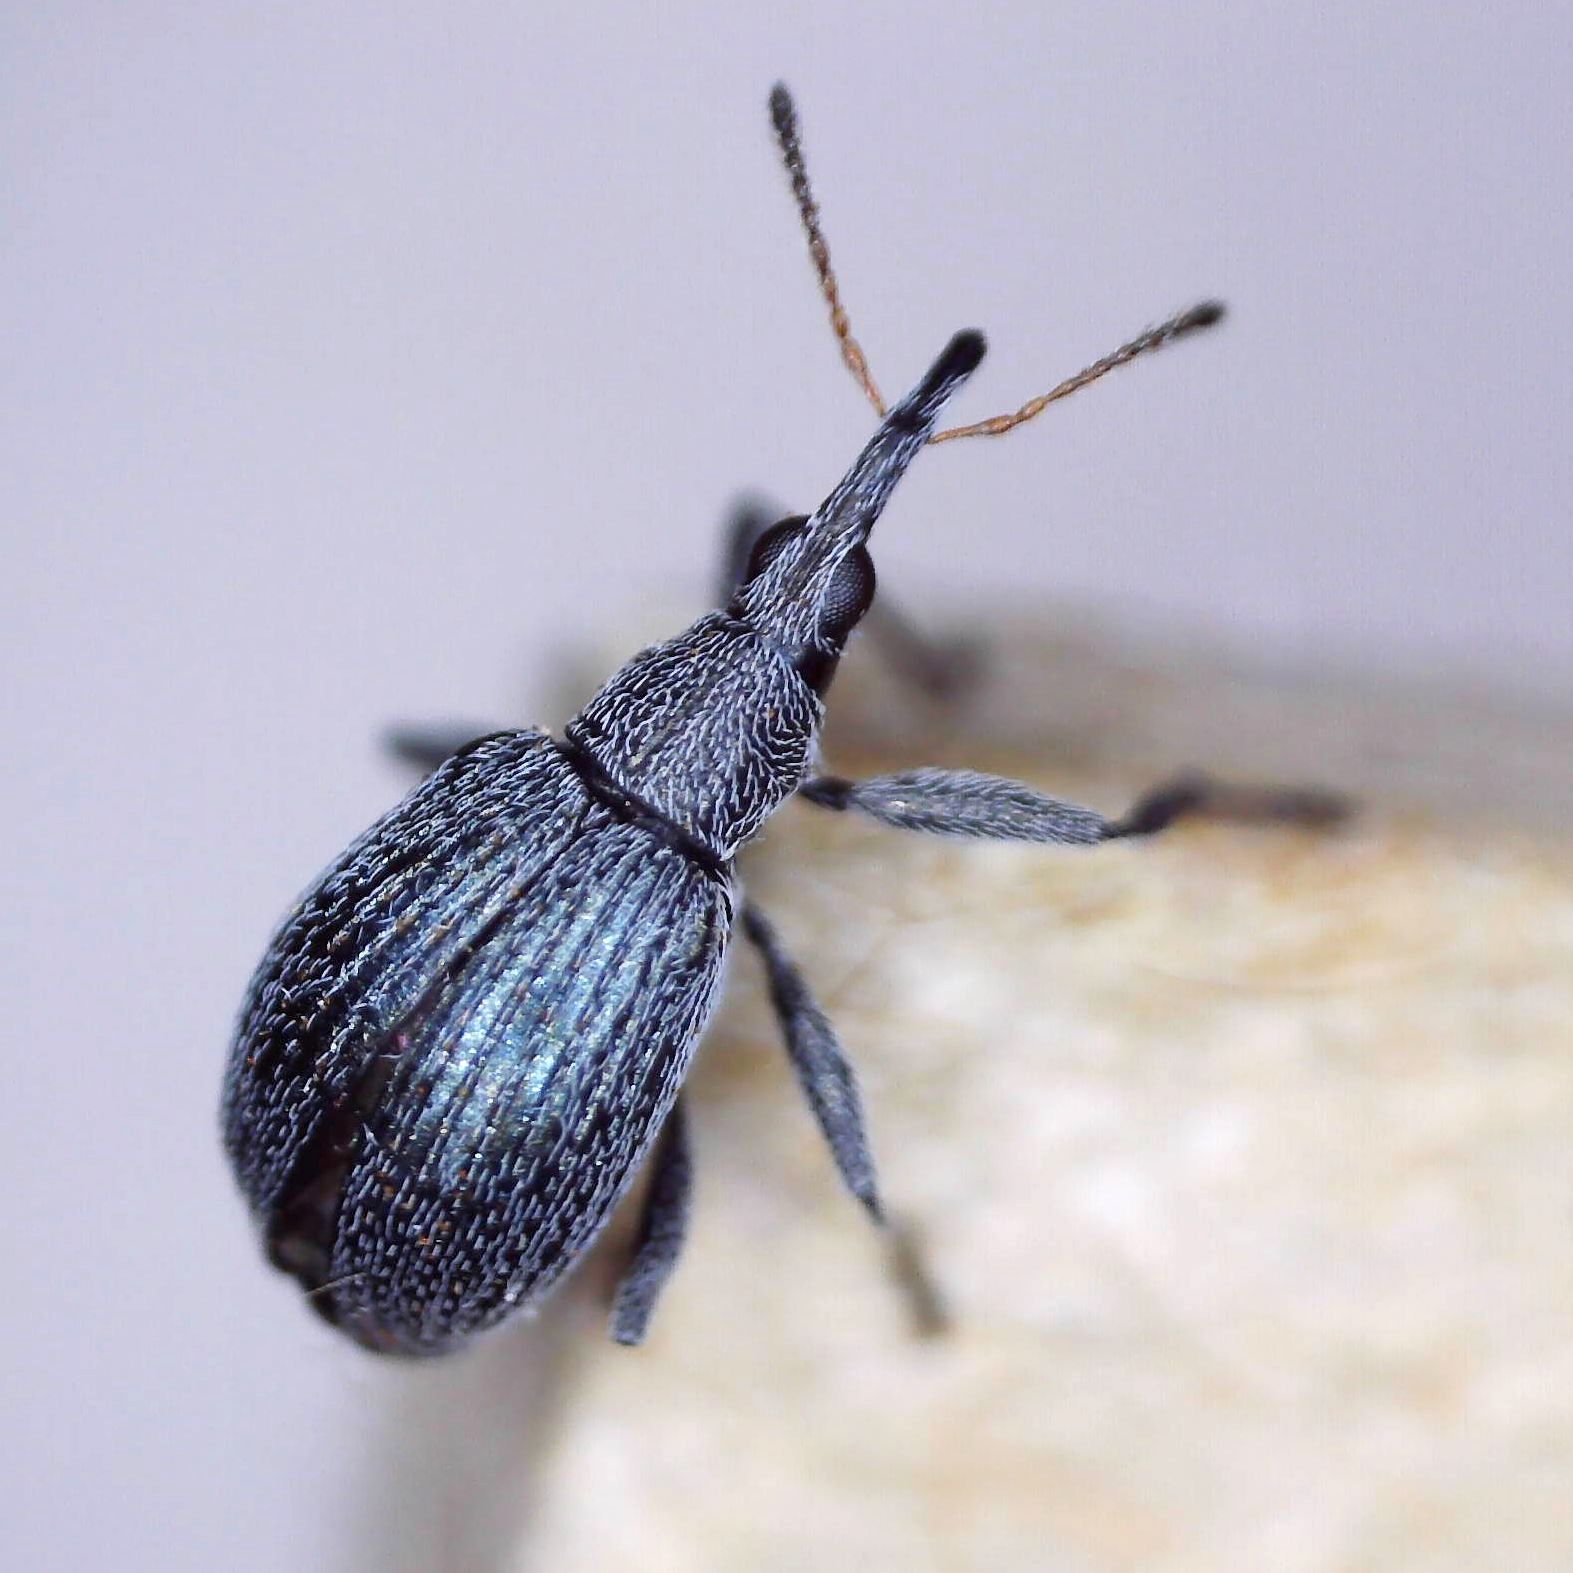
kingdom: Animalia
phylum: Arthropoda
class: Insecta
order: Coleoptera
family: Brentidae
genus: Eutrichapion
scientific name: Eutrichapion vorax
